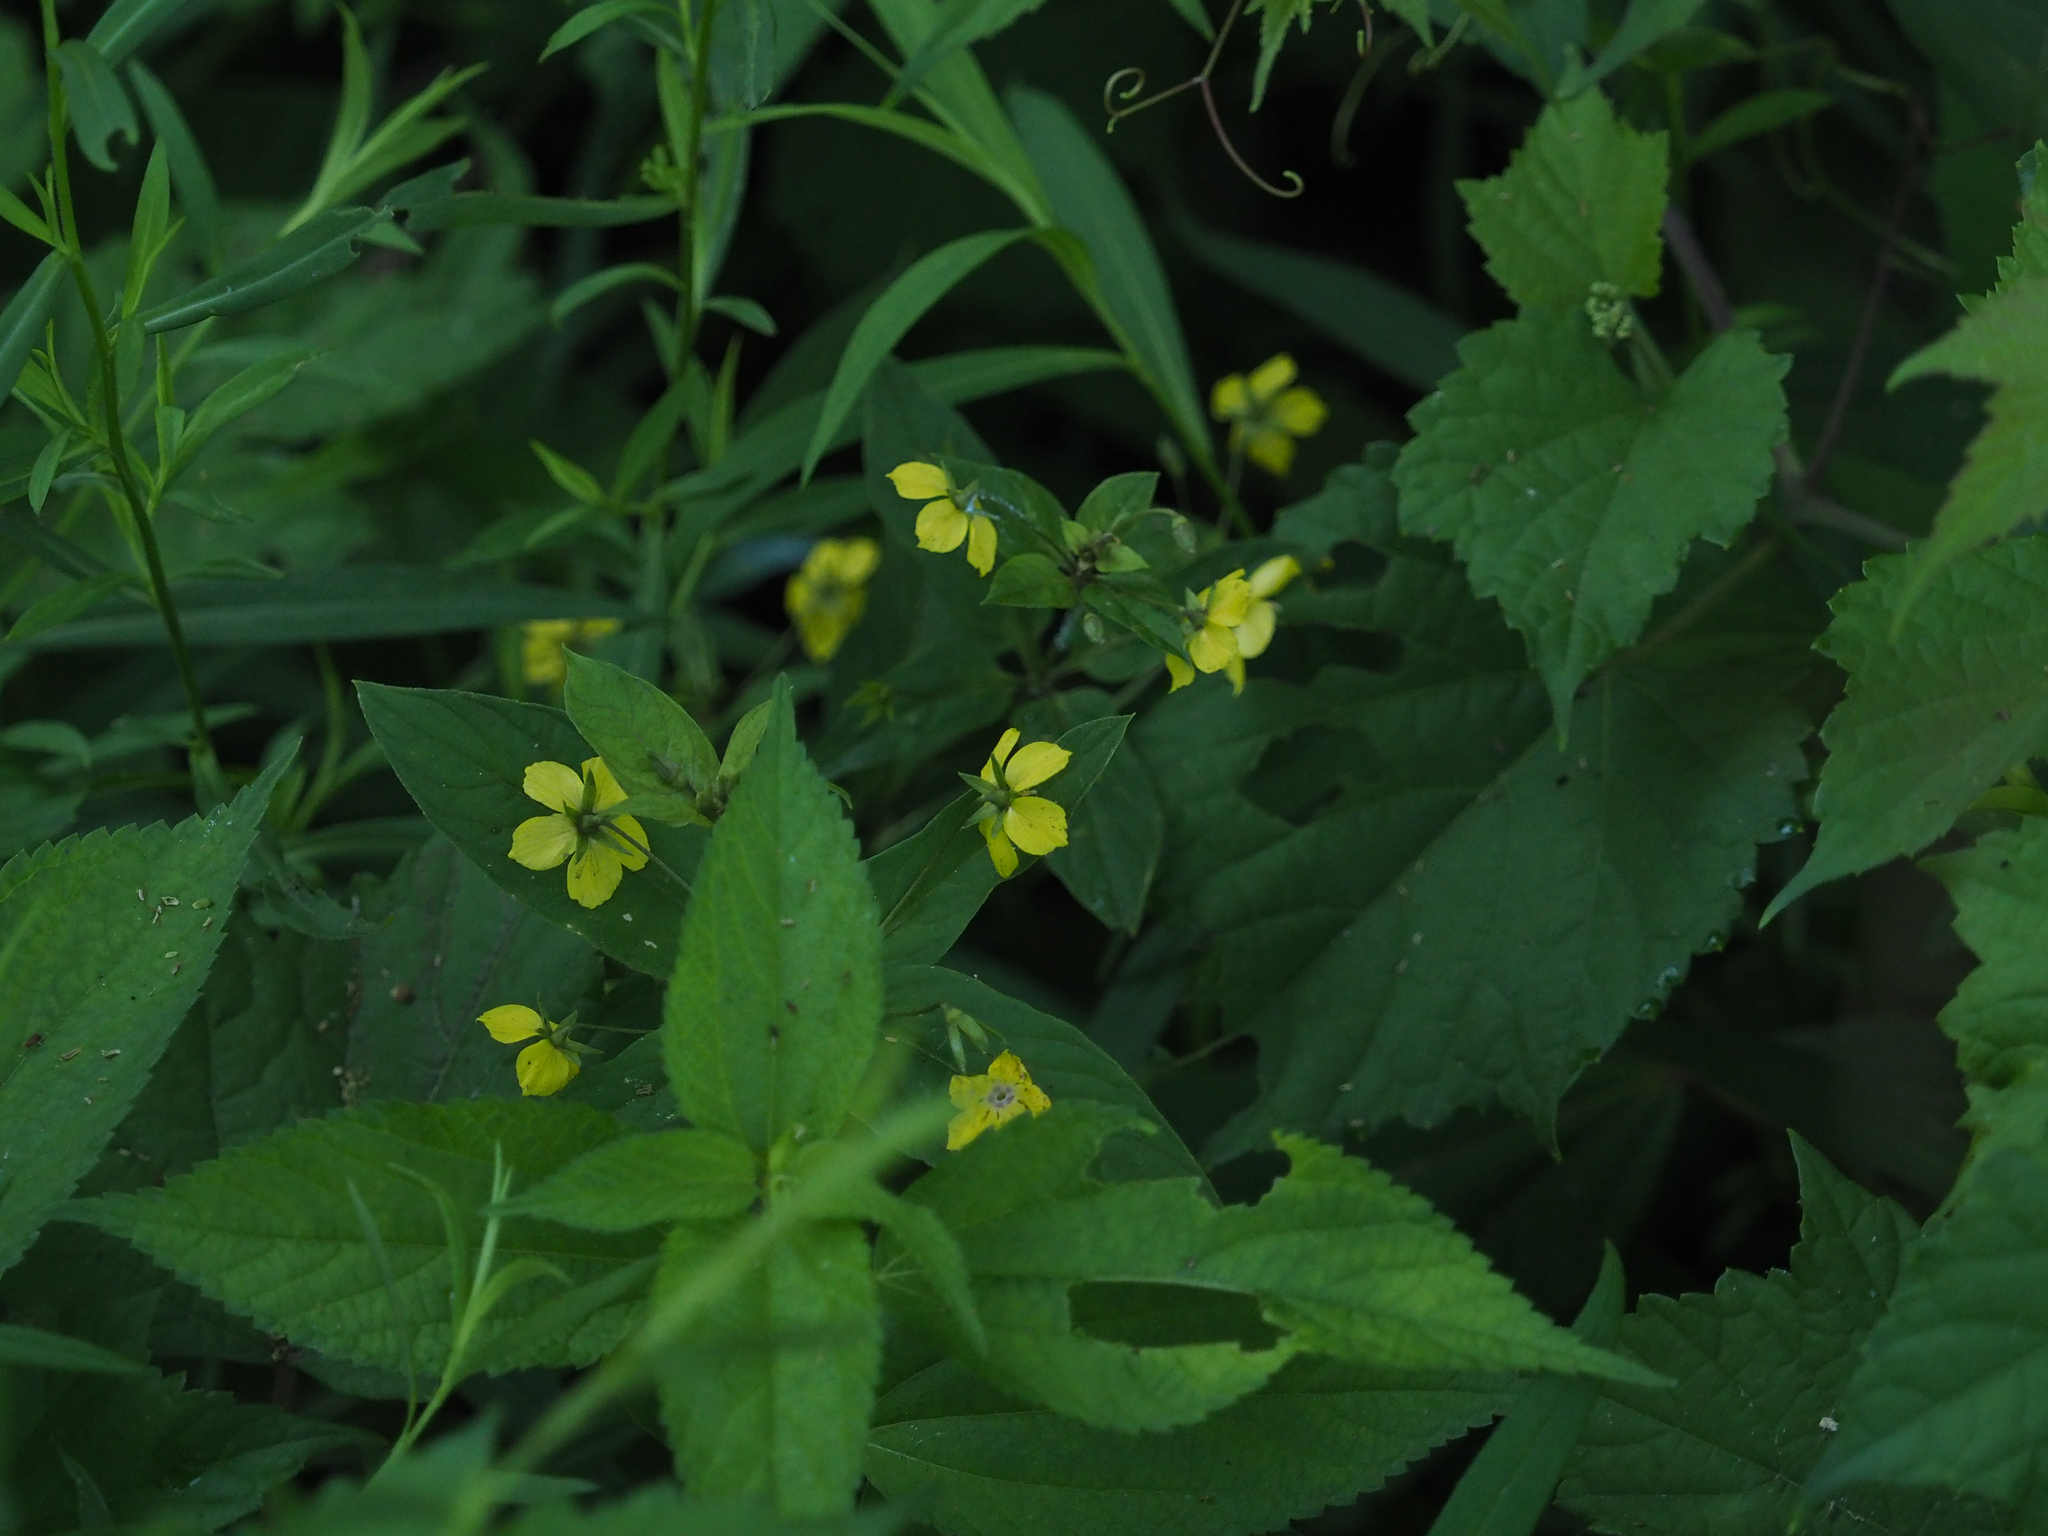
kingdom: Plantae
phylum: Tracheophyta
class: Magnoliopsida
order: Ericales
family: Primulaceae
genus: Lysimachia
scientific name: Lysimachia ciliata
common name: Fringed loosestrife
